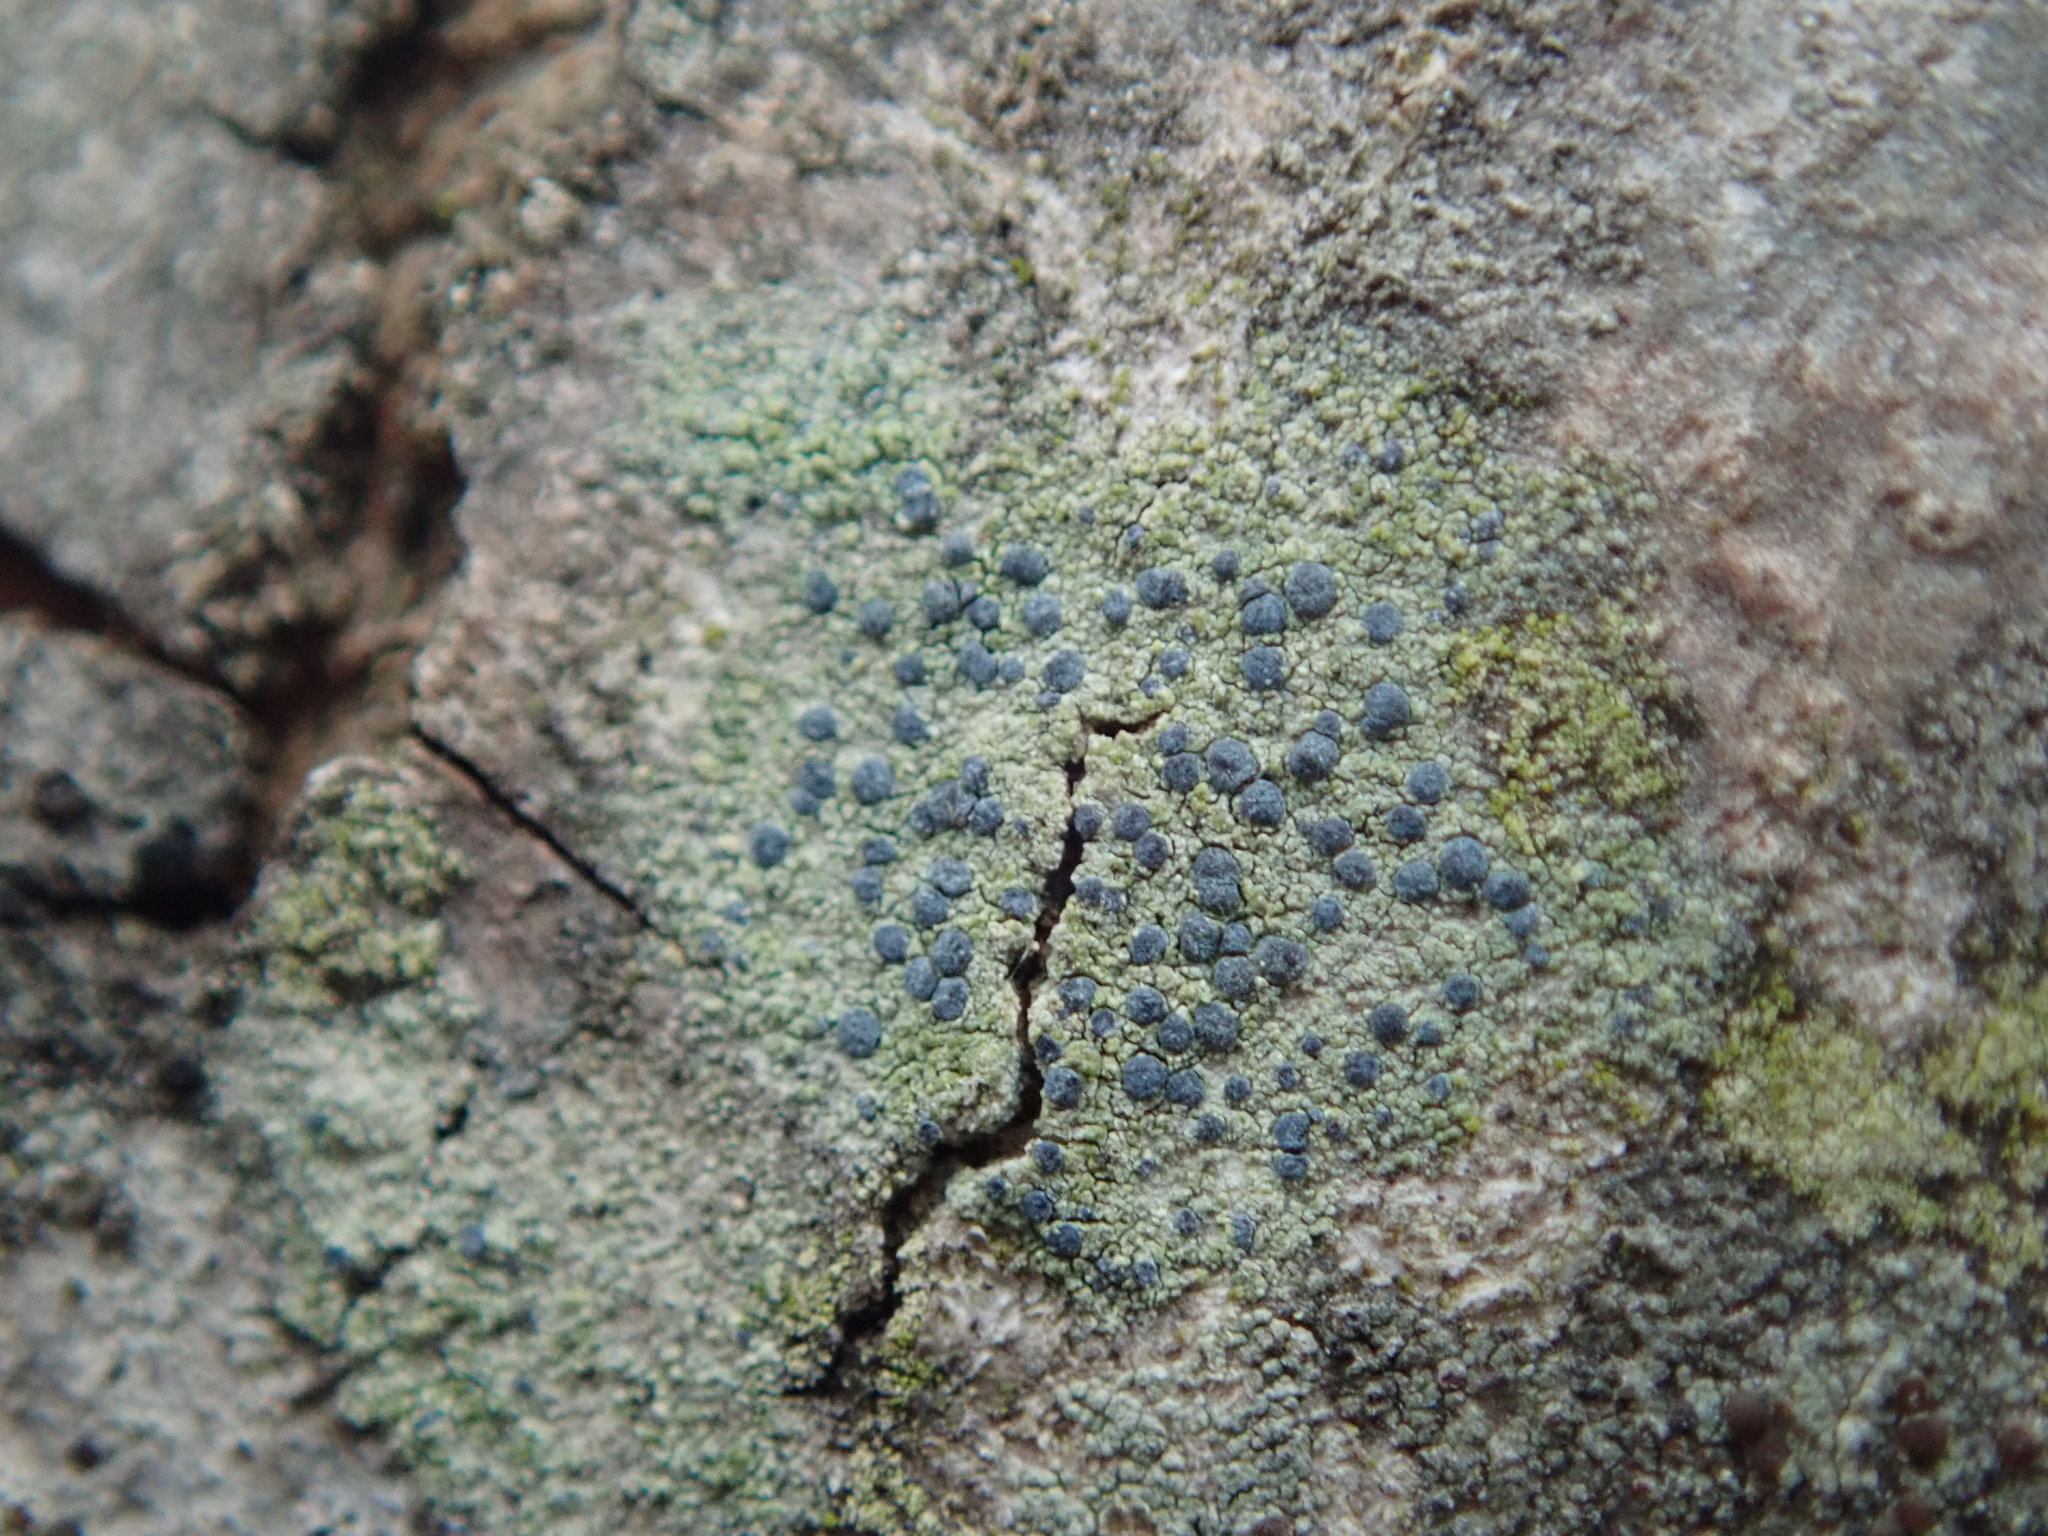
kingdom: Fungi
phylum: Ascomycota
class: Arthoniomycetes
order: Arthoniales
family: Chrysotrichaceae
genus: Chrysothrix
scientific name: Chrysothrix caesia
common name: Frosted comma lichen
